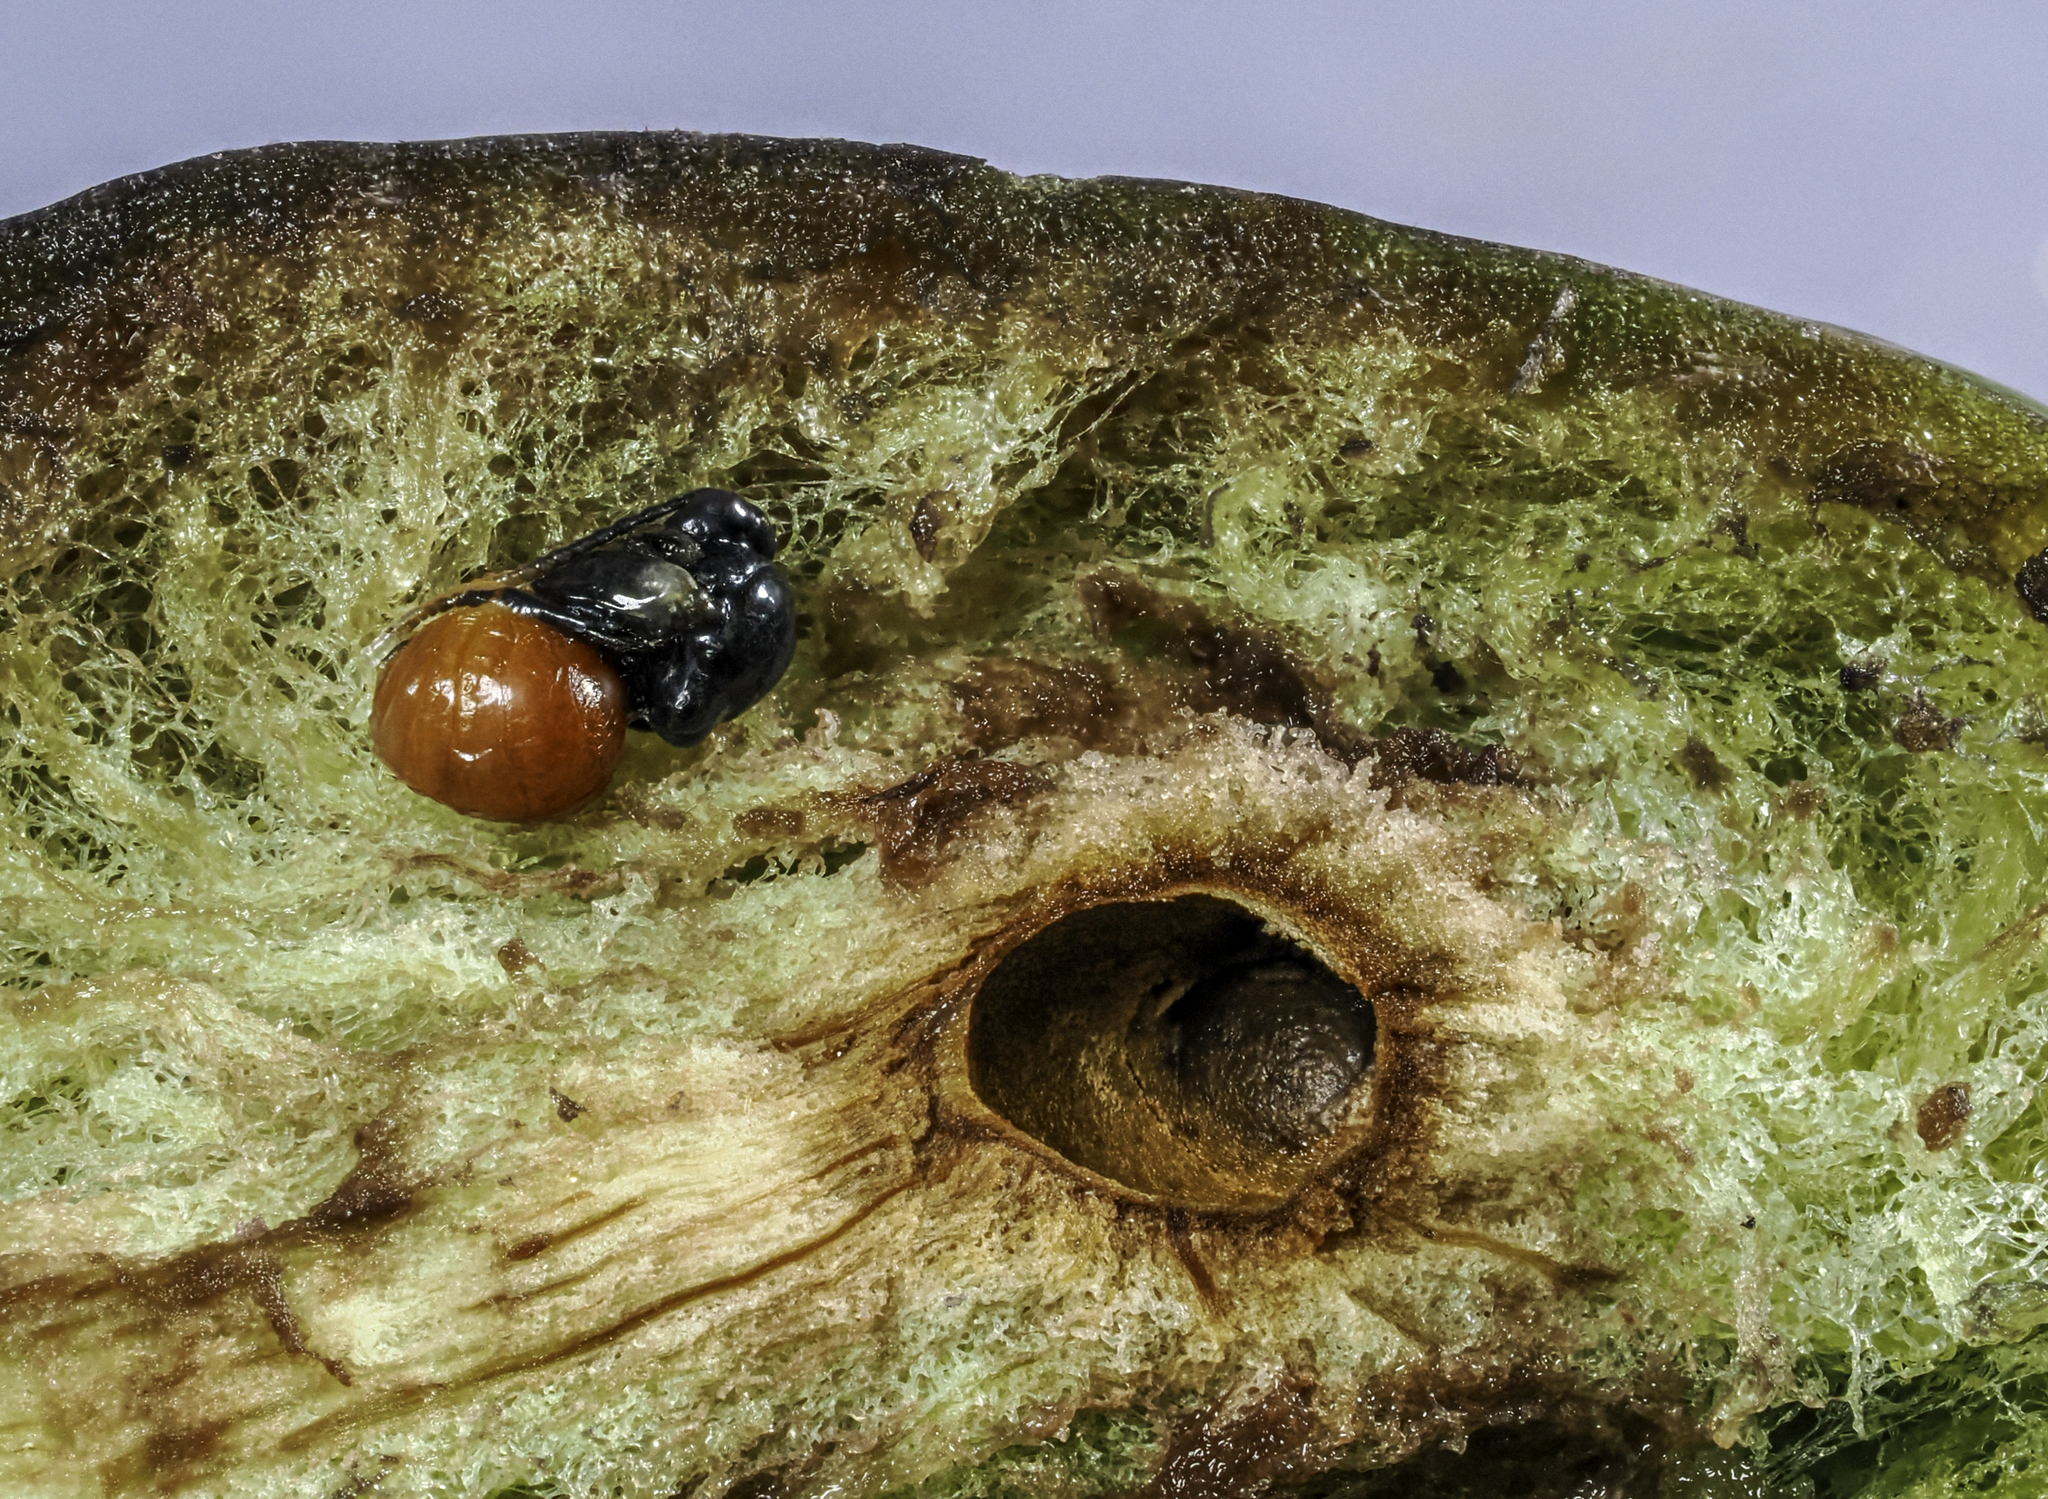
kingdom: Animalia
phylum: Arthropoda
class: Insecta
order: Hymenoptera
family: Cynipidae
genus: Amphibolips
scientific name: Amphibolips
